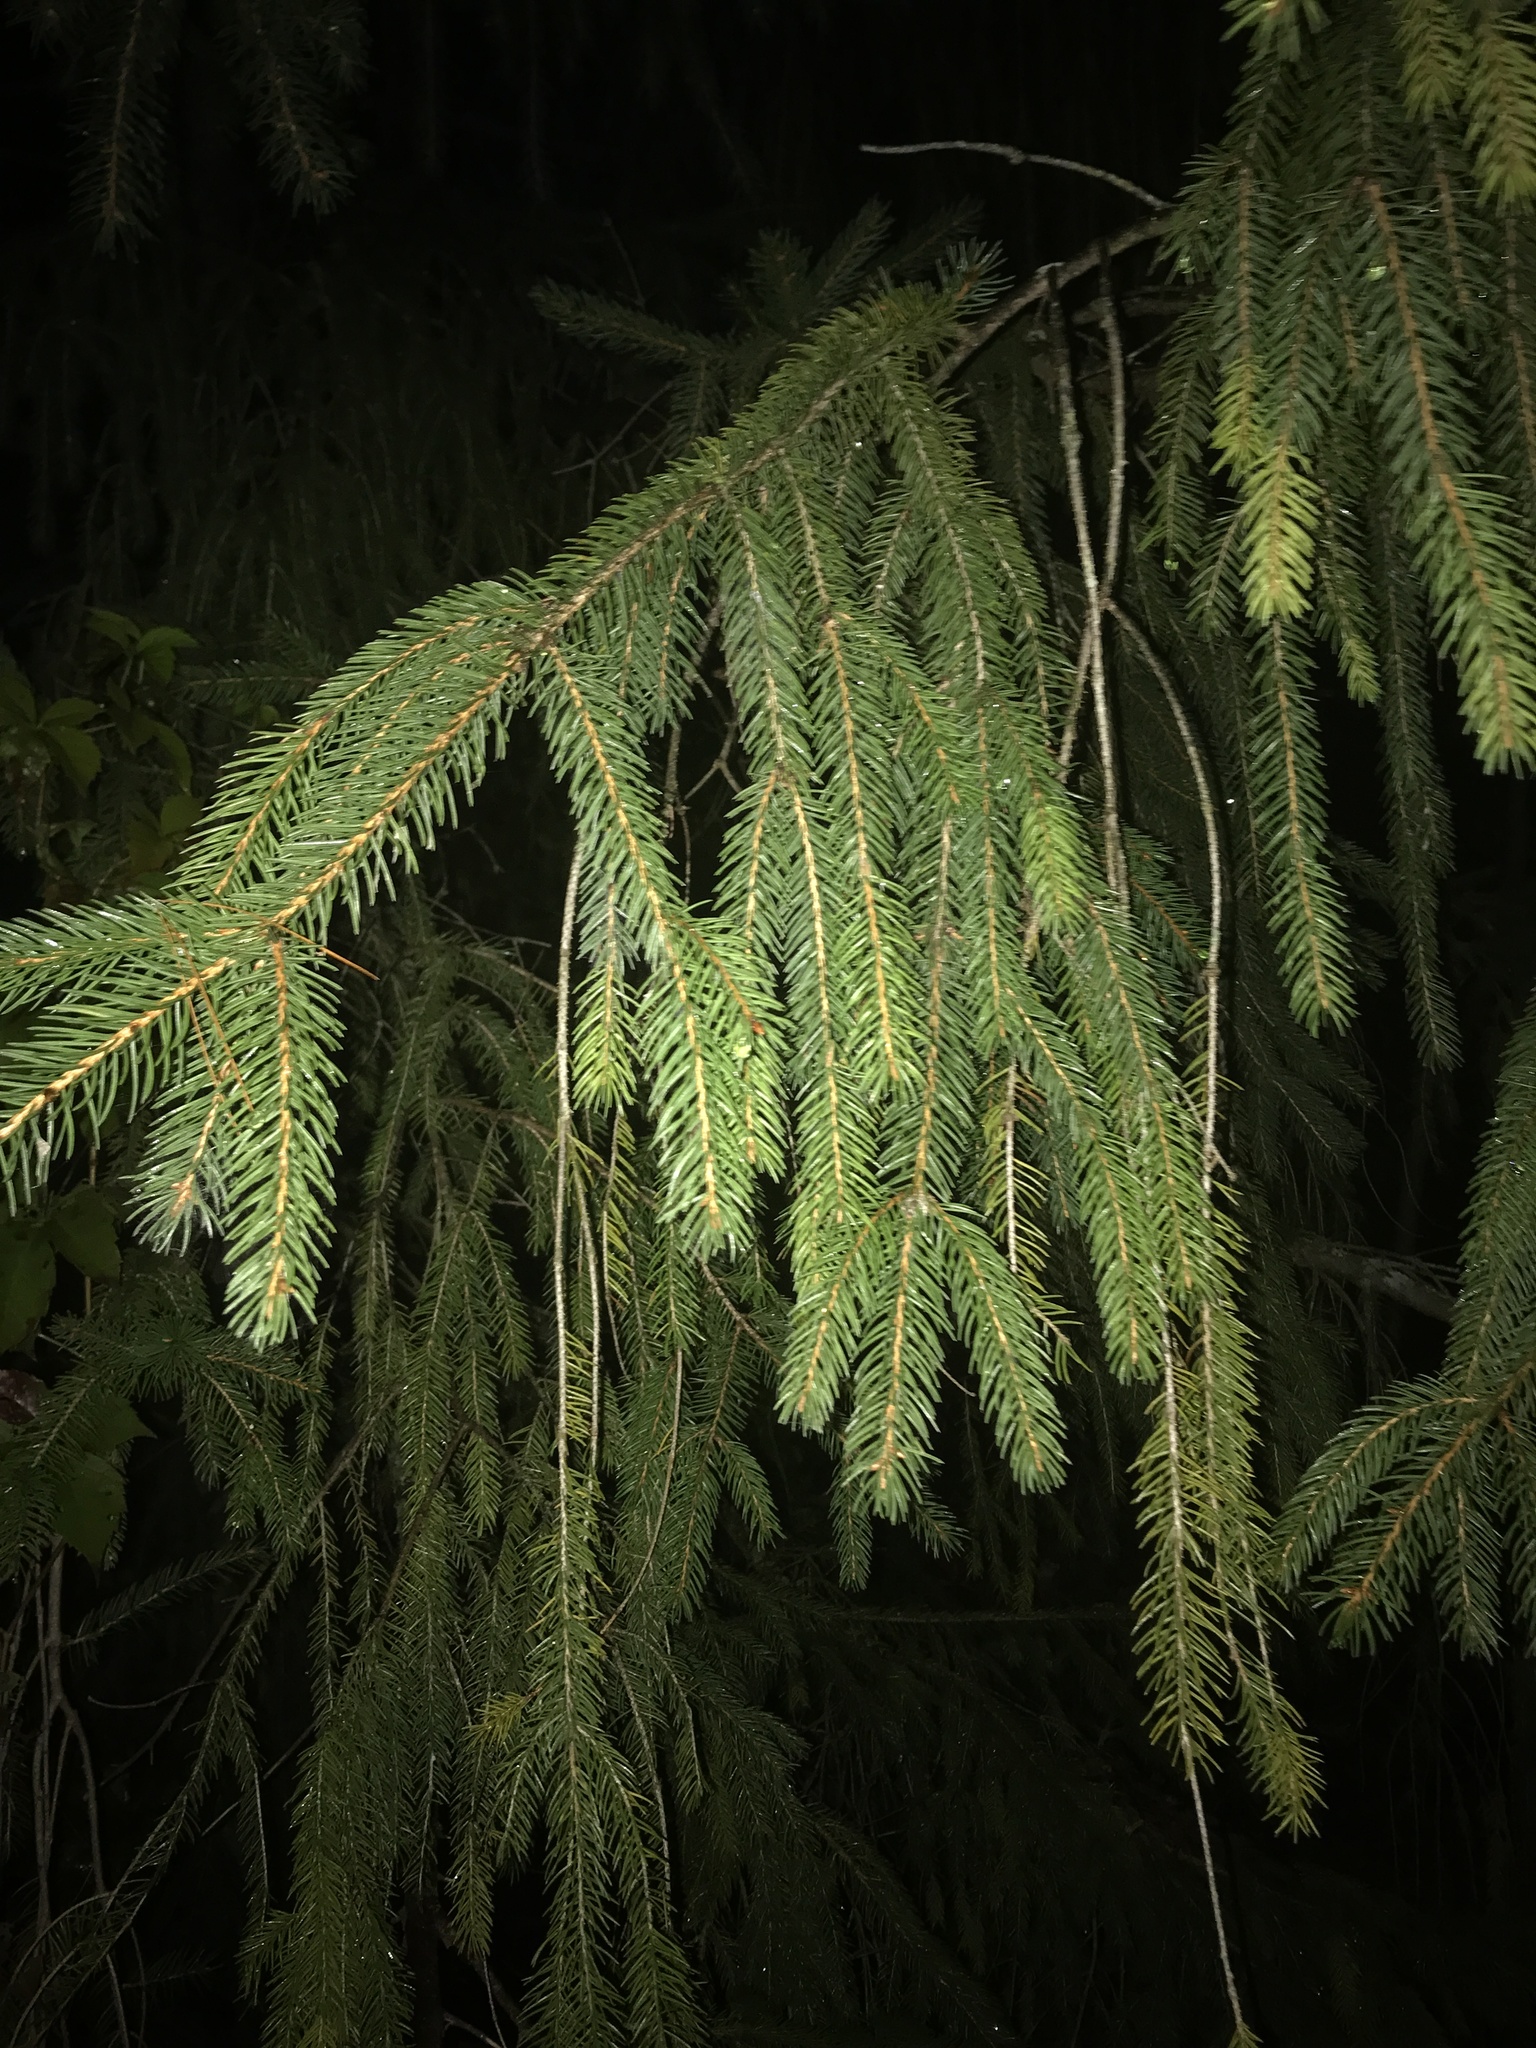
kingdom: Plantae
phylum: Tracheophyta
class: Pinopsida
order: Pinales
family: Pinaceae
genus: Picea
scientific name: Picea abies
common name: Norway spruce
